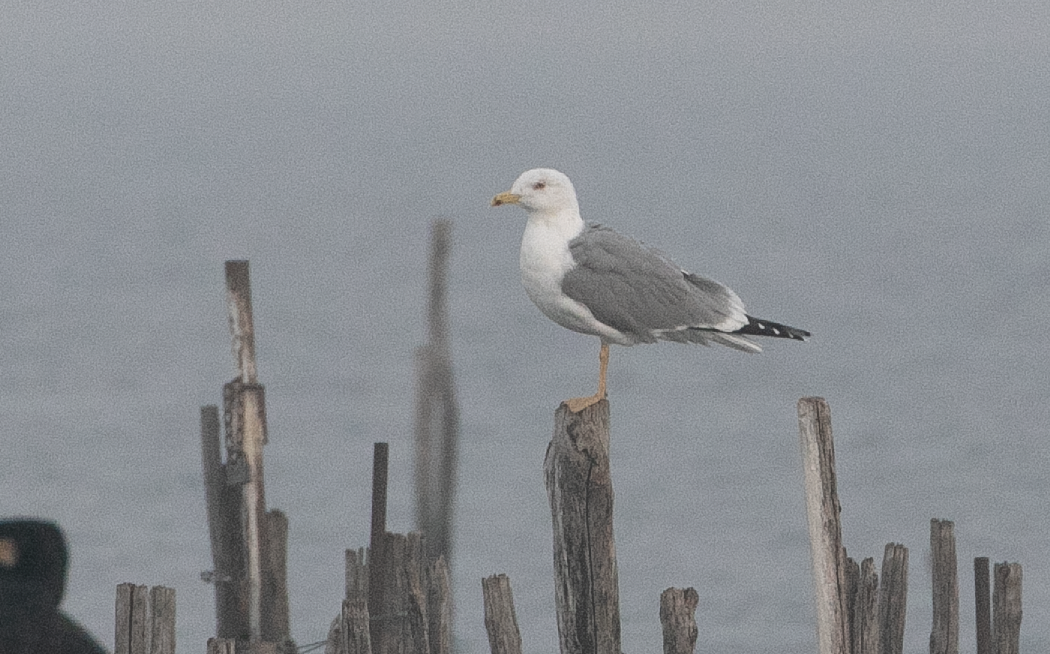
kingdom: Animalia
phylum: Chordata
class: Aves
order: Charadriiformes
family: Laridae
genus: Larus
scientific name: Larus michahellis
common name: Yellow-legged gull
